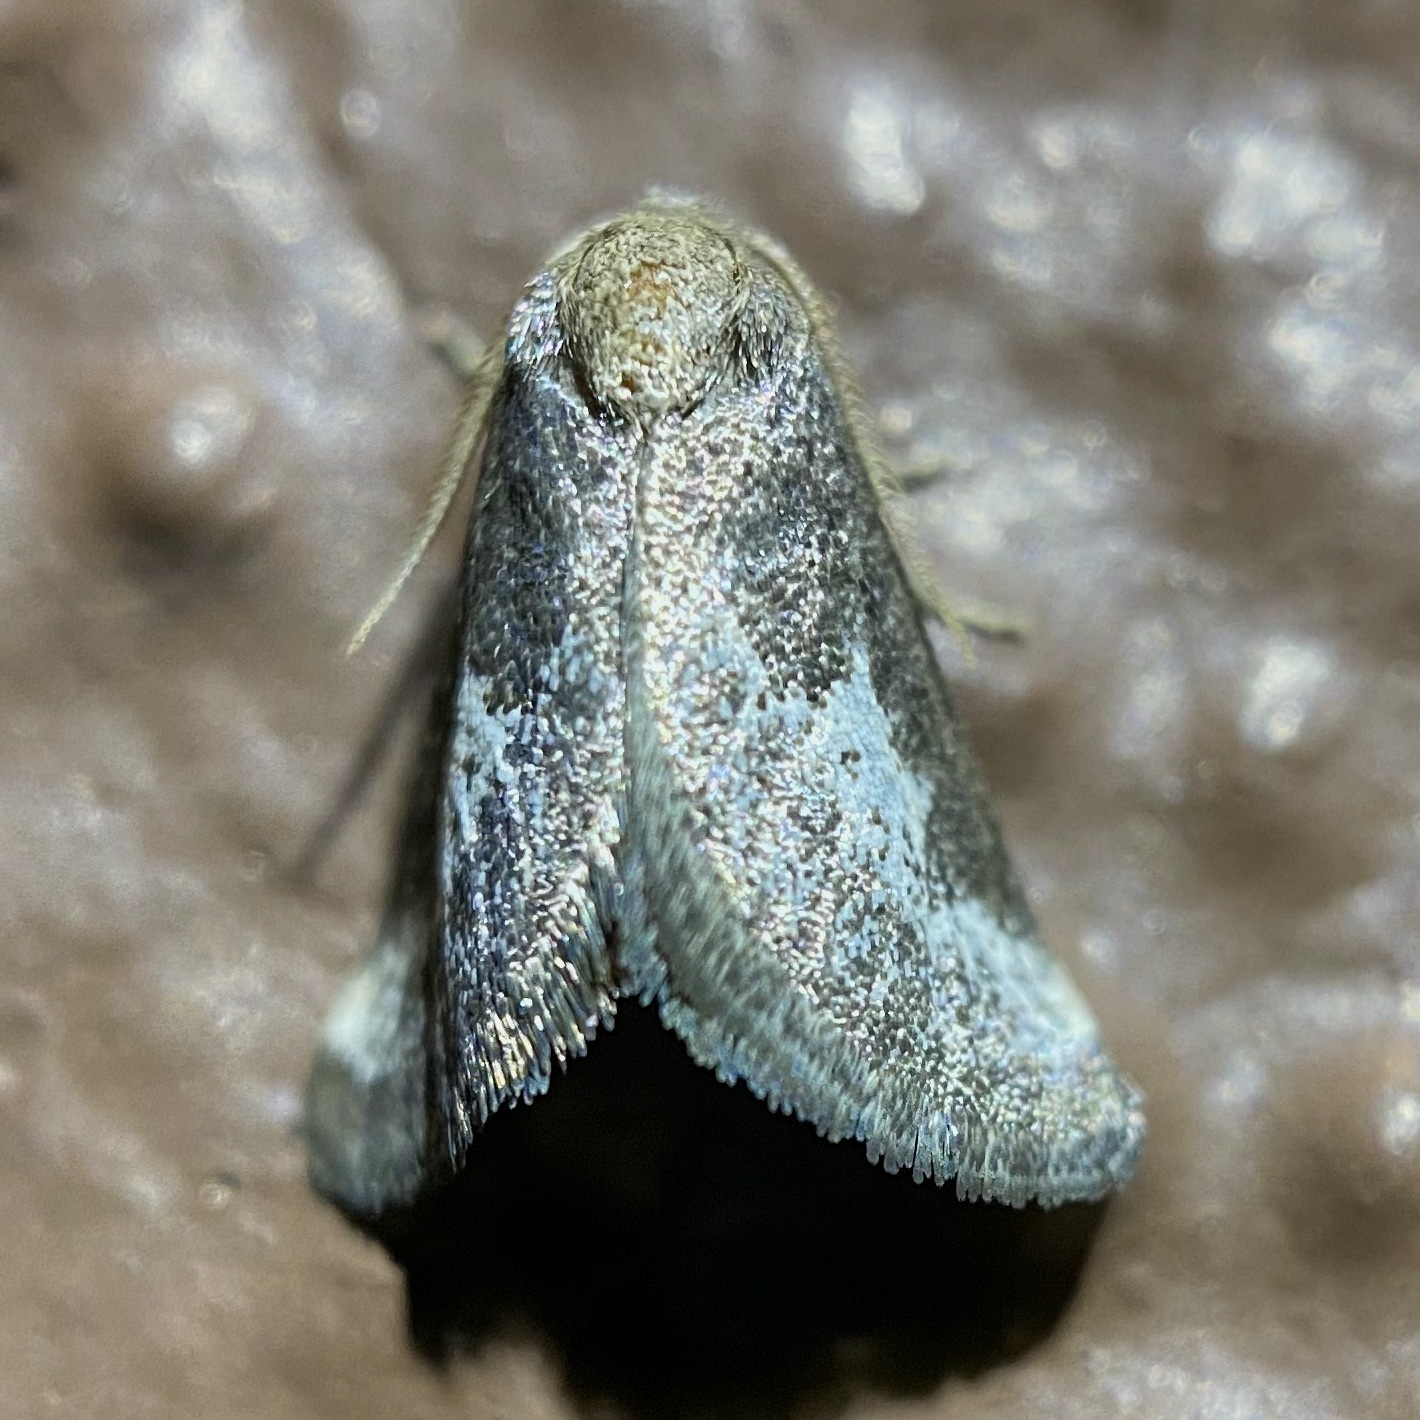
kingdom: Animalia
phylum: Arthropoda
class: Insecta
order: Lepidoptera
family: Limacodidae
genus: Cryptophobetron
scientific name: Cryptophobetron oropeso
